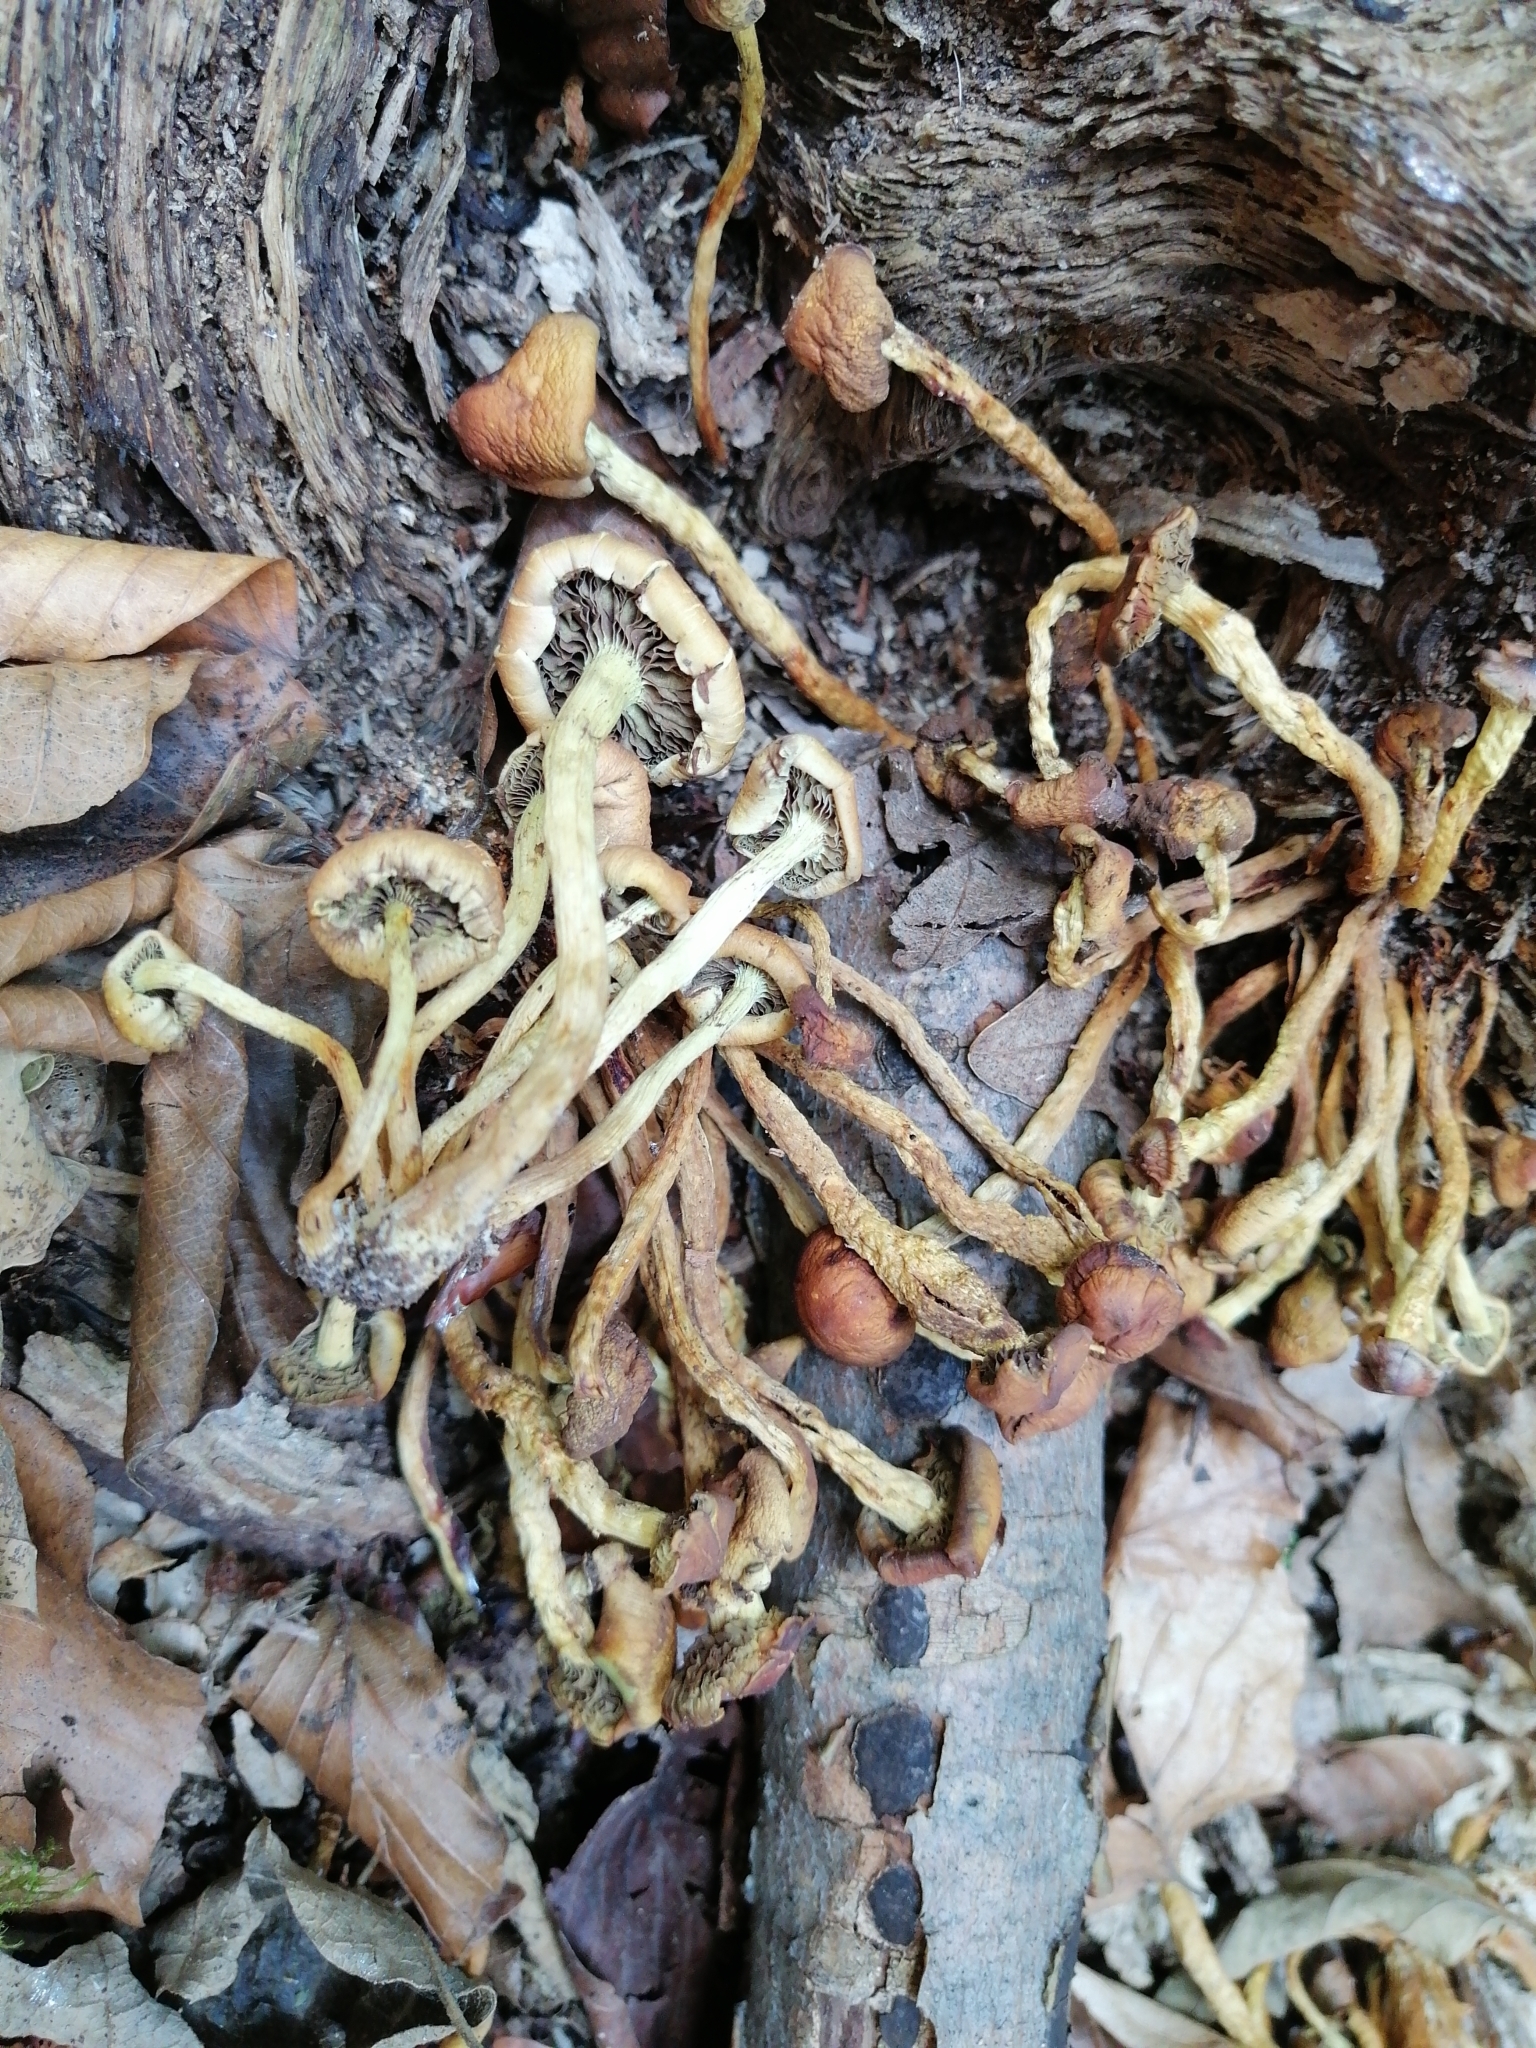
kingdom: Fungi
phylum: Basidiomycota
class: Agaricomycetes
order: Agaricales
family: Strophariaceae
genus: Hypholoma
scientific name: Hypholoma fasciculare
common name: Sulphur tuft
